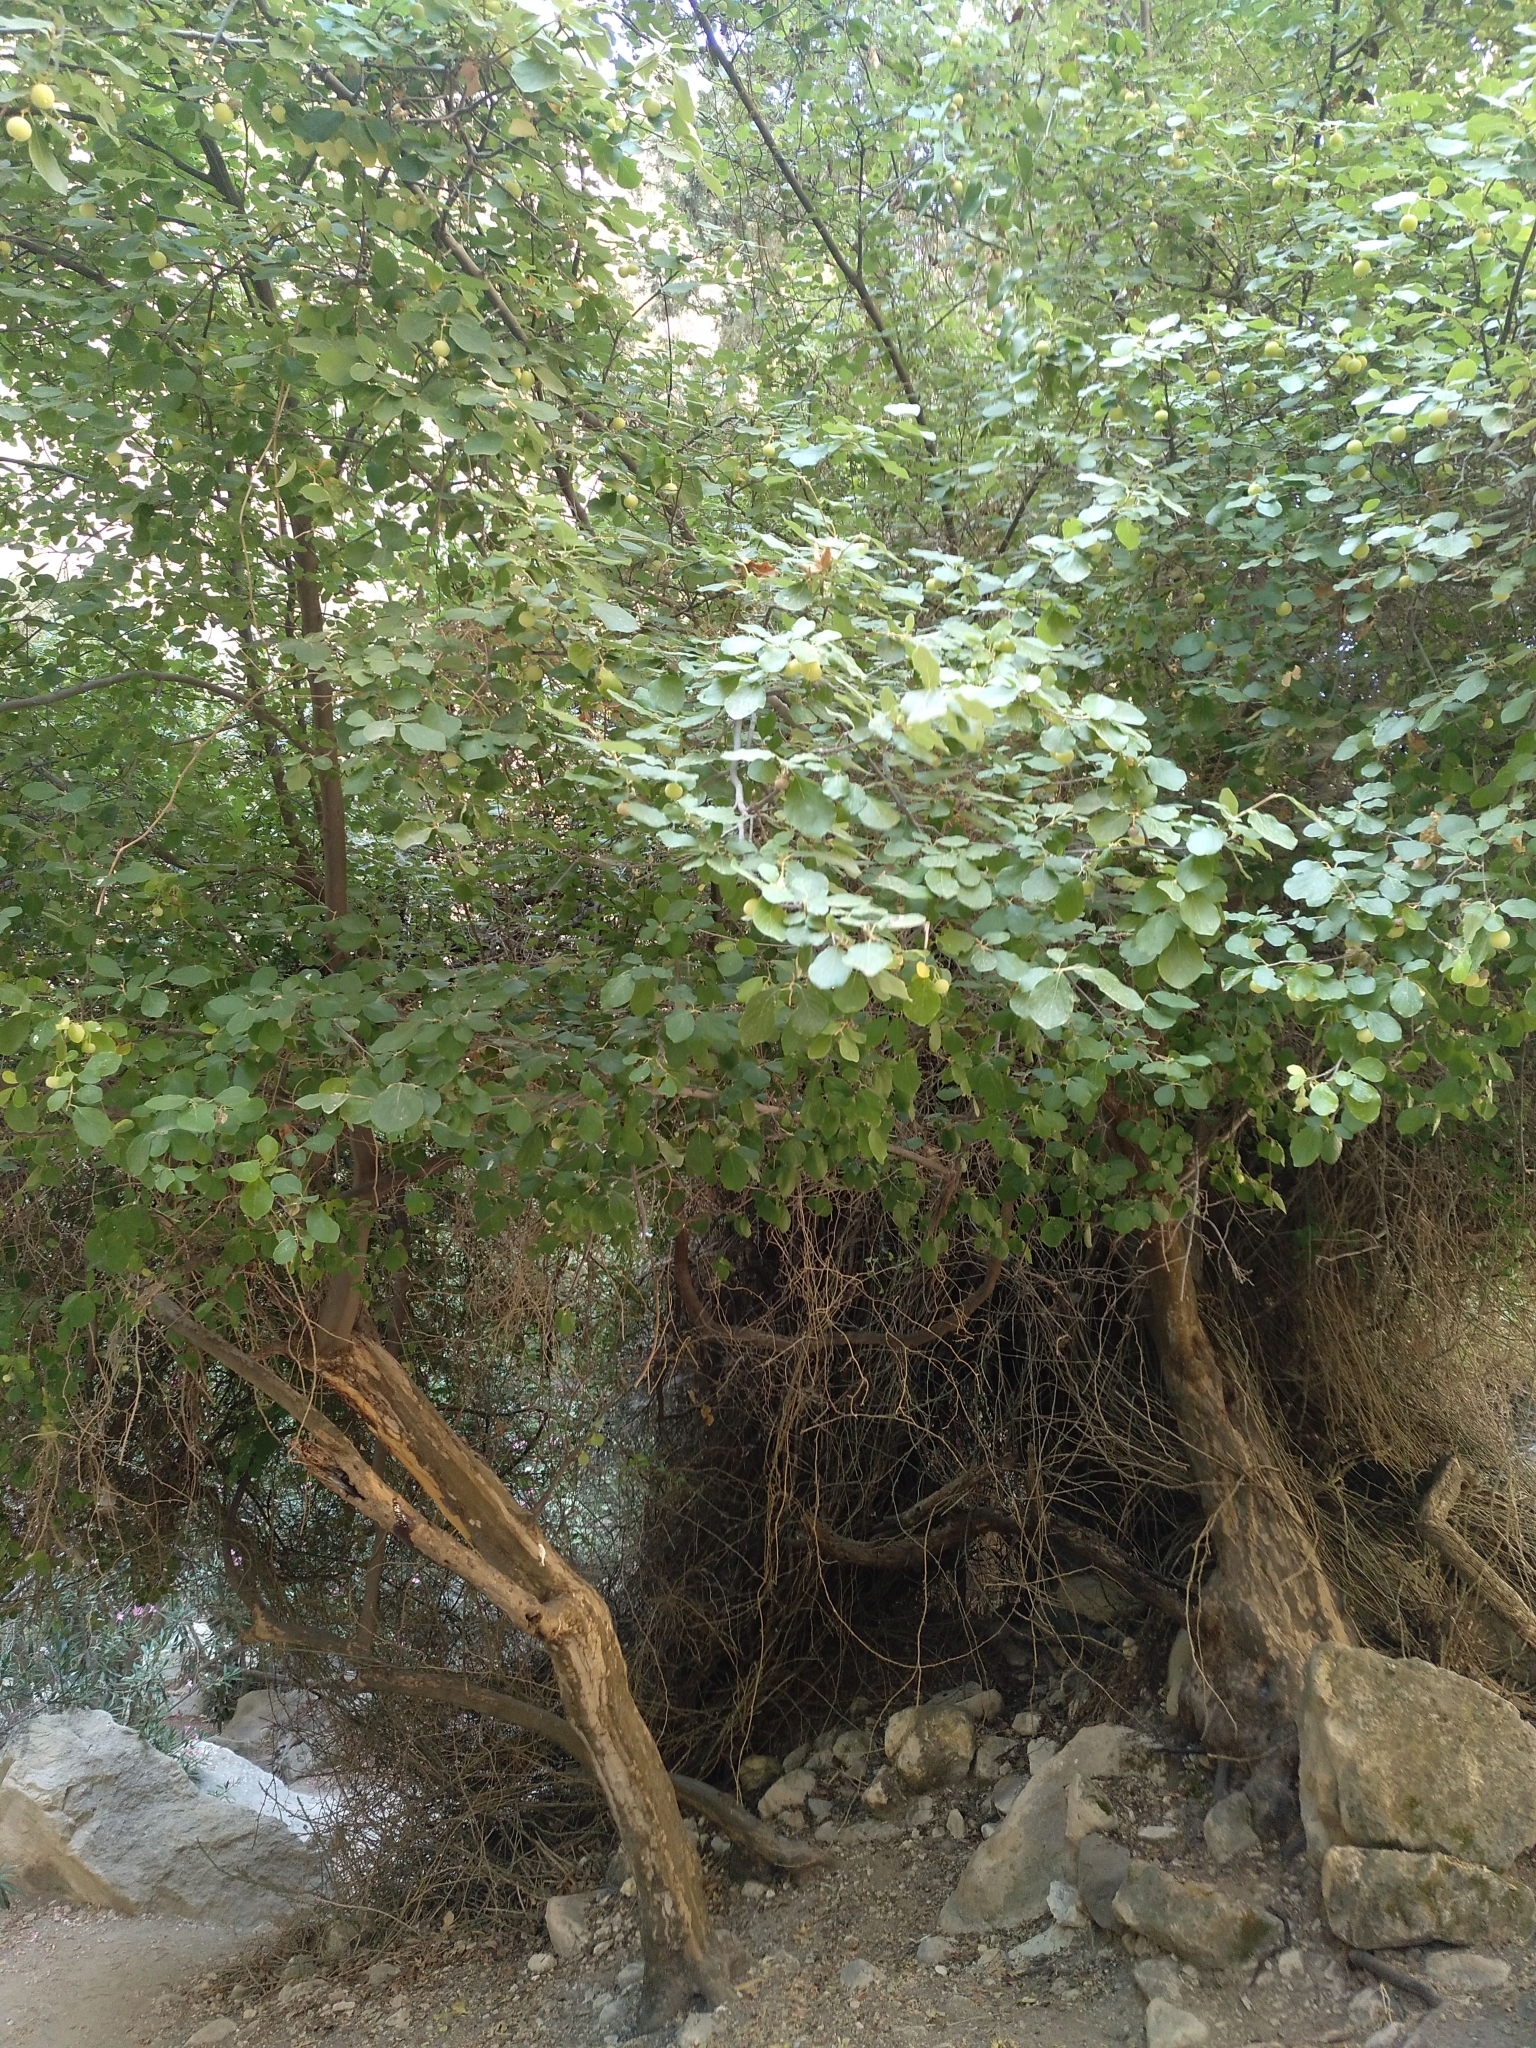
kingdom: Plantae
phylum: Tracheophyta
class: Magnoliopsida
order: Ericales
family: Styracaceae
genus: Styrax
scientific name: Styrax officinalis
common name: Storax
